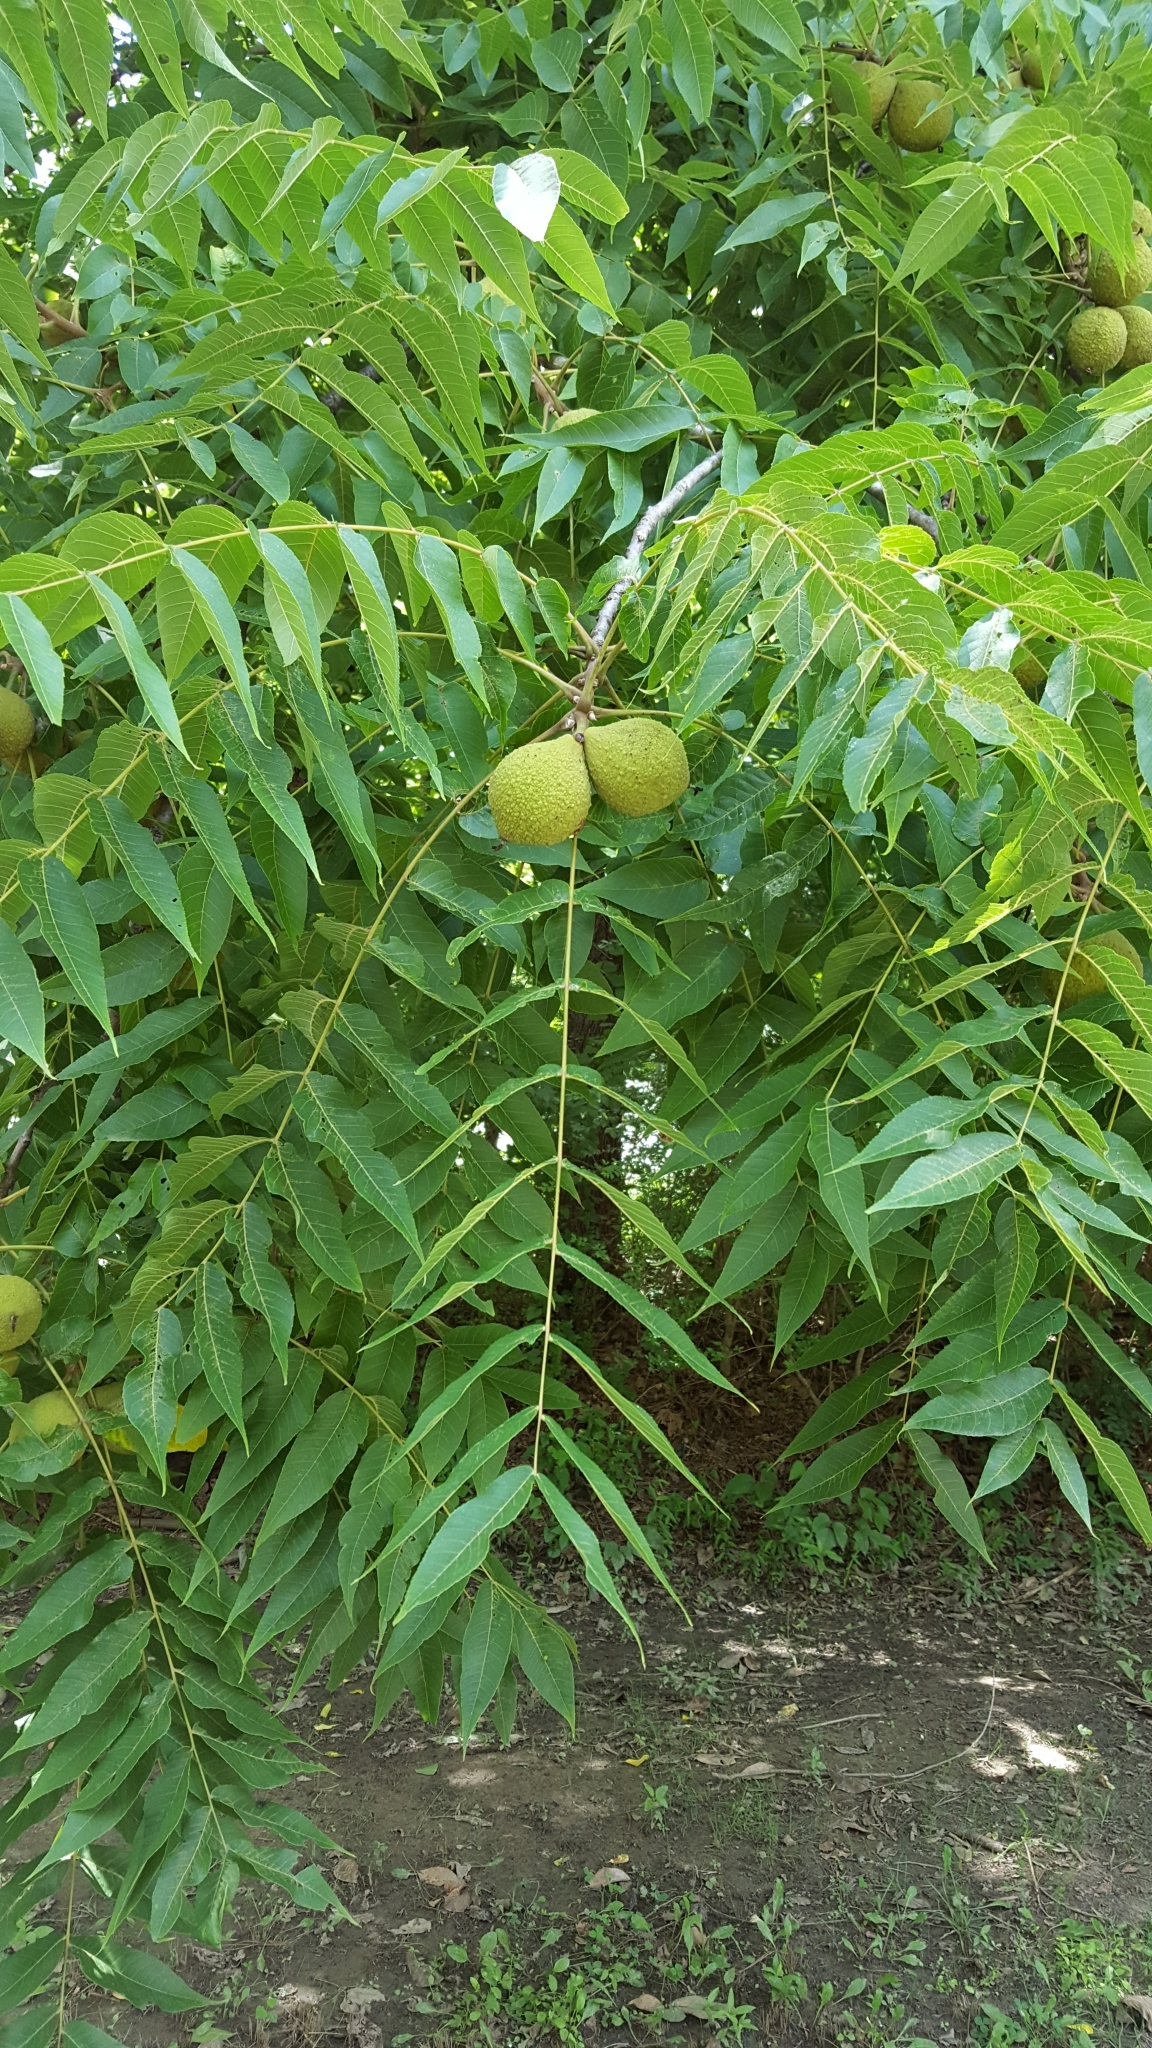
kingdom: Plantae
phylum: Tracheophyta
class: Magnoliopsida
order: Fagales
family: Juglandaceae
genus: Juglans
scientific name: Juglans nigra
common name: Black walnut
